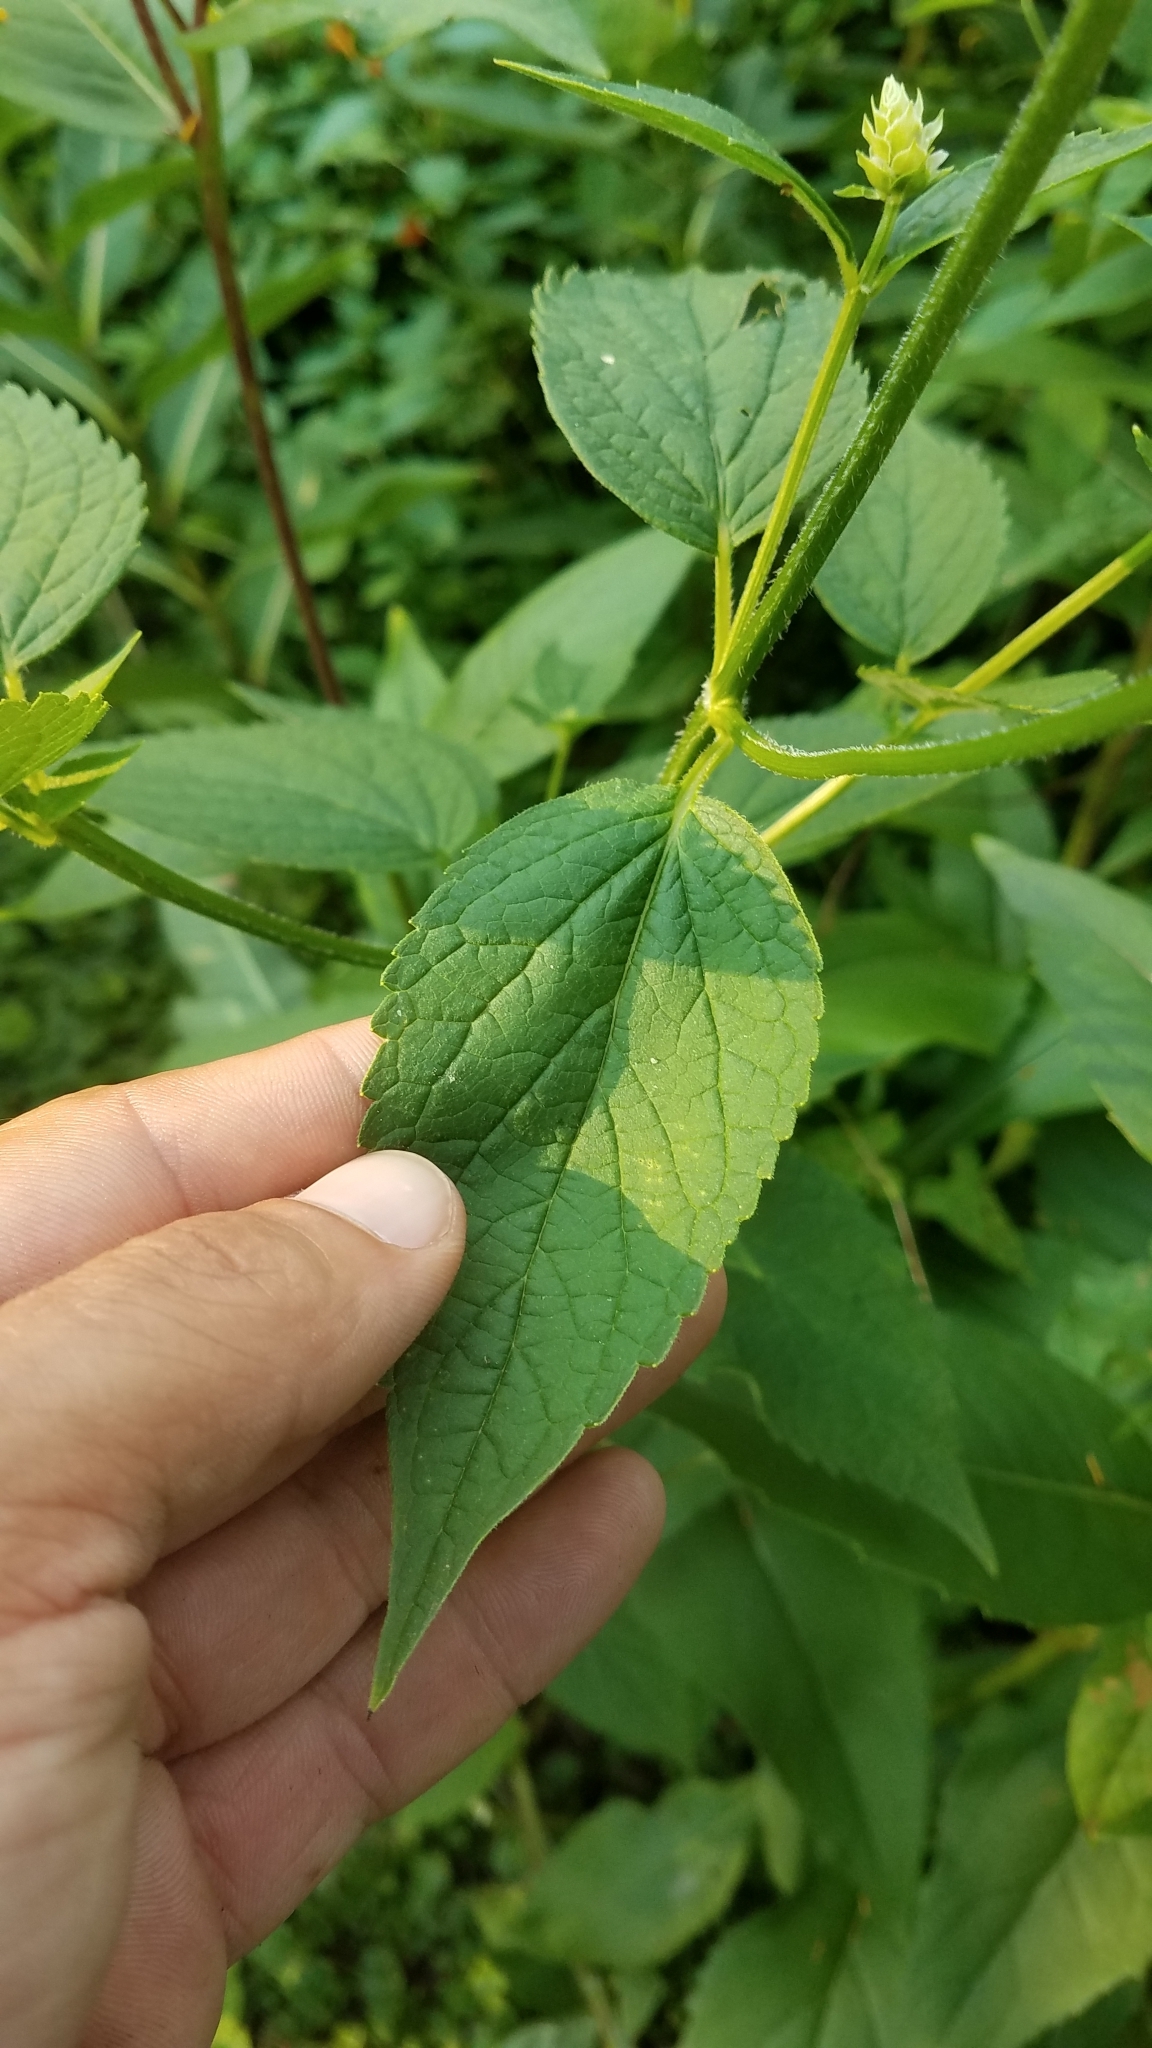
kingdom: Plantae
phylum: Tracheophyta
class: Magnoliopsida
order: Lamiales
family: Lamiaceae
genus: Agastache
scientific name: Agastache scrophulariifolia
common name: Figwort giant hyssop
